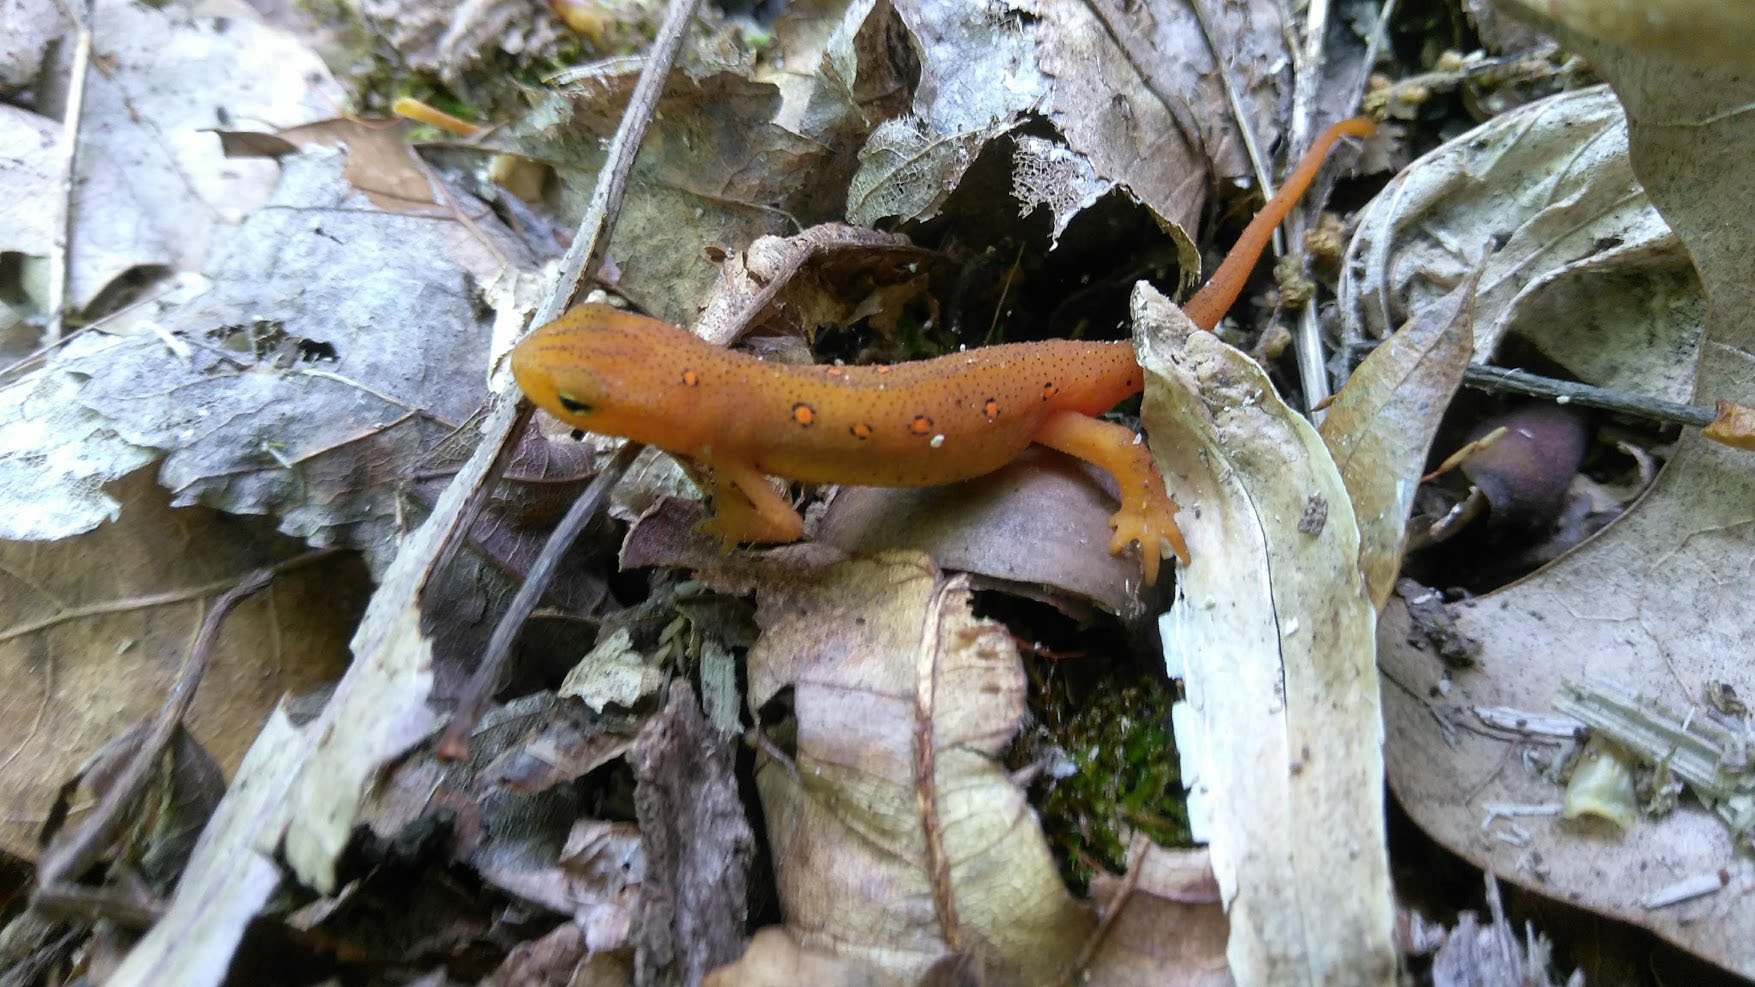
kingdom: Animalia
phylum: Chordata
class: Amphibia
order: Caudata
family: Salamandridae
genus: Notophthalmus
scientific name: Notophthalmus viridescens
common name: Eastern newt
